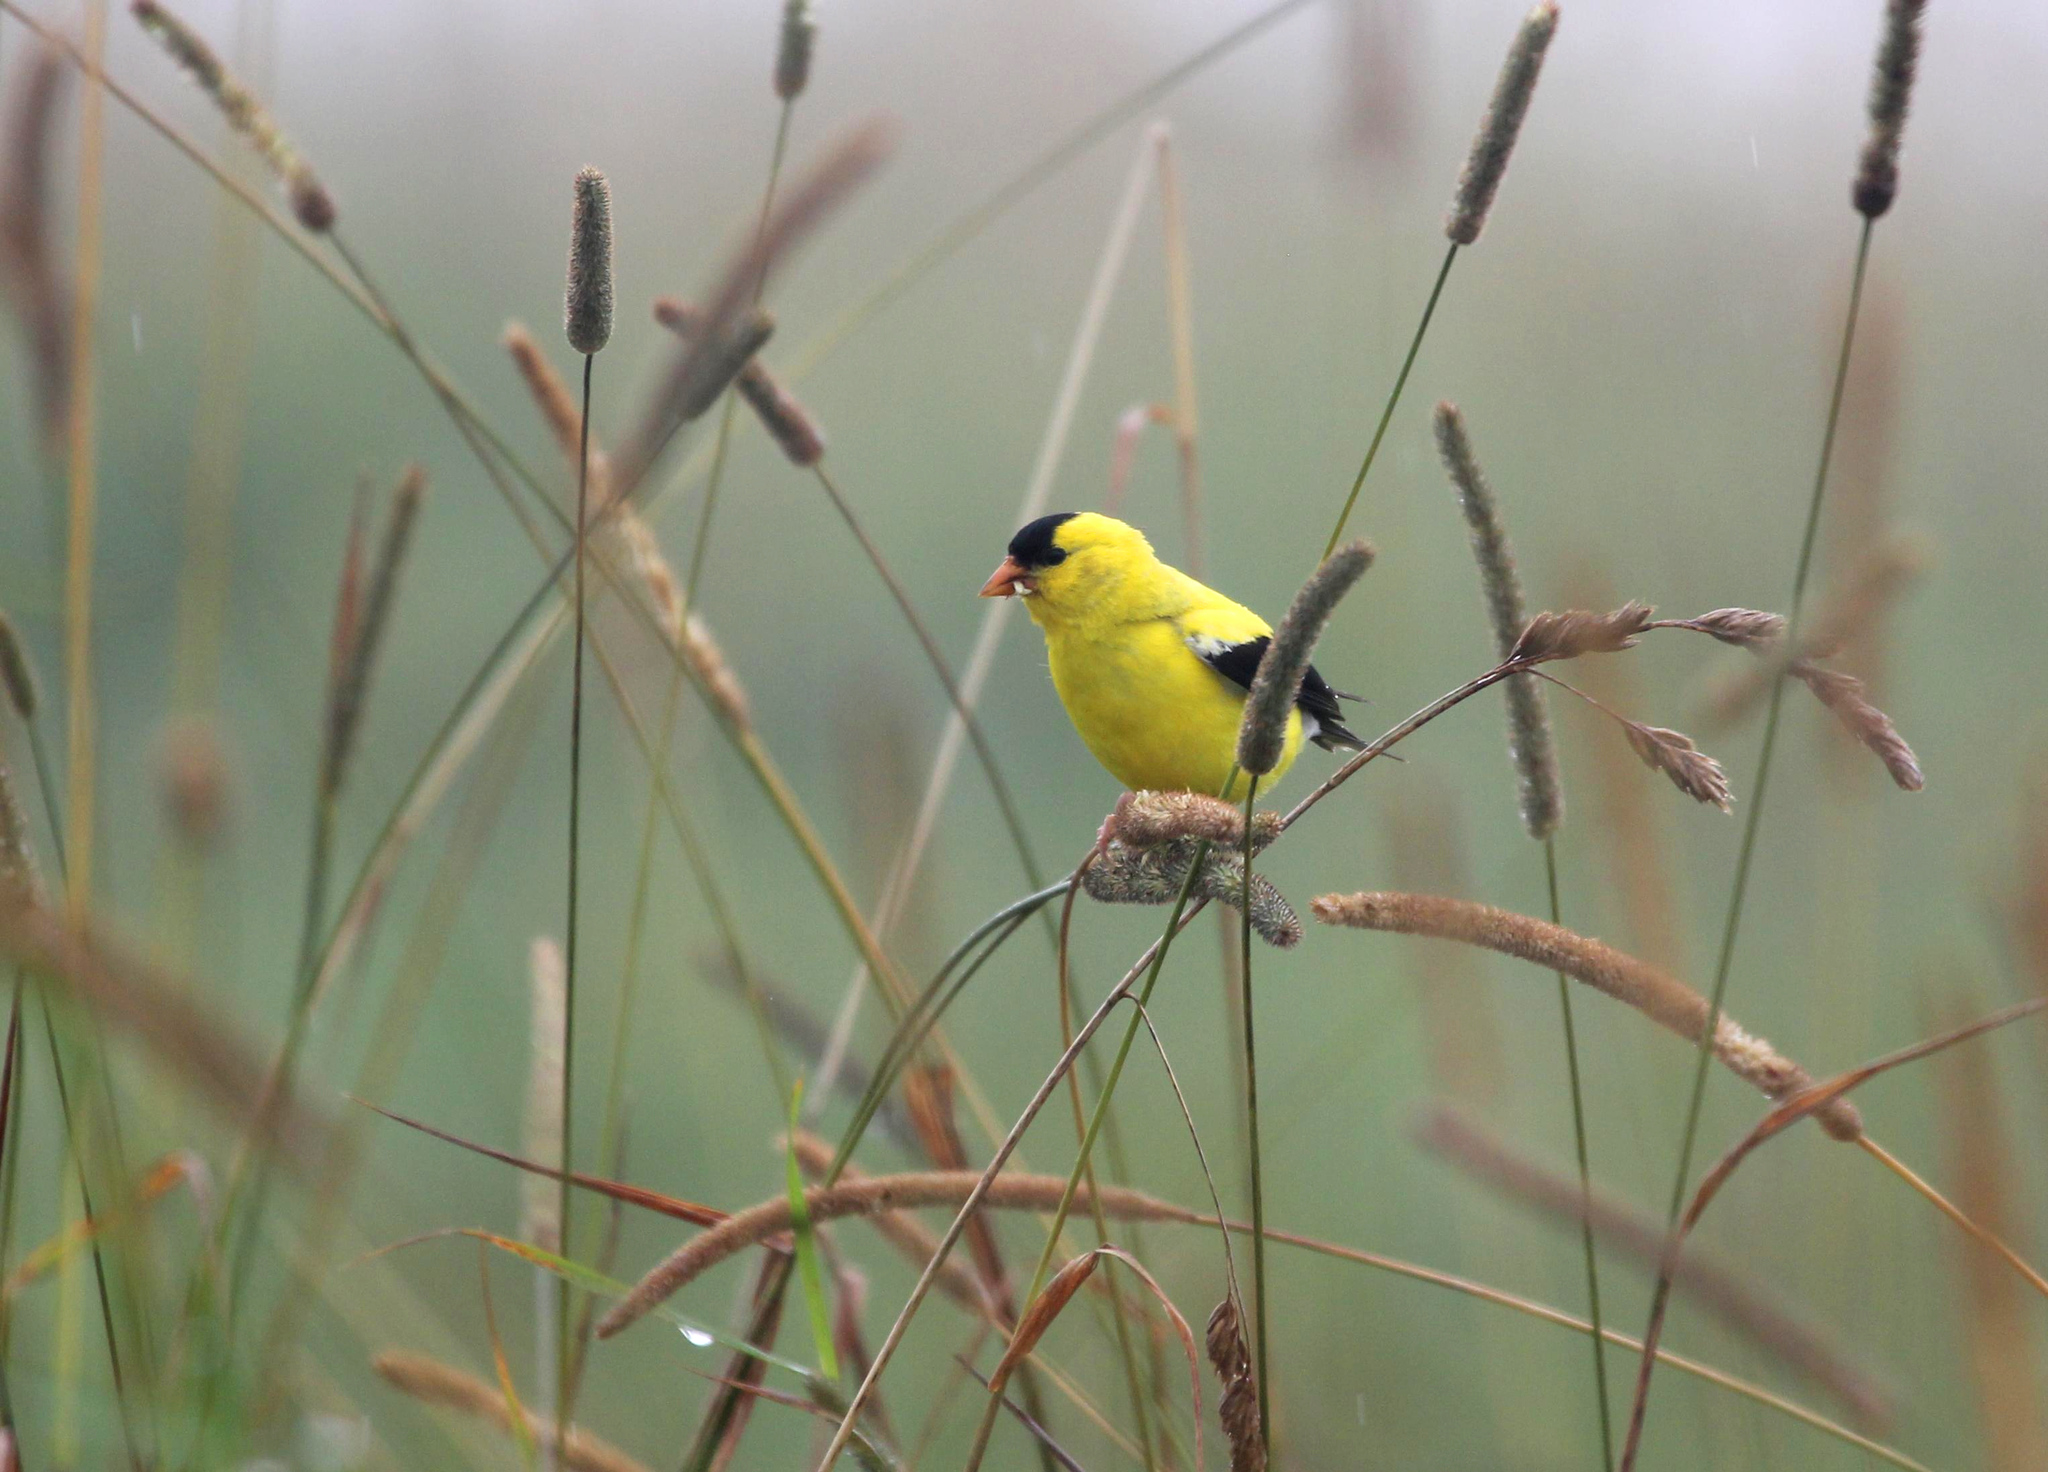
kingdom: Animalia
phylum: Chordata
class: Aves
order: Passeriformes
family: Fringillidae
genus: Spinus
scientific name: Spinus tristis
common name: American goldfinch
